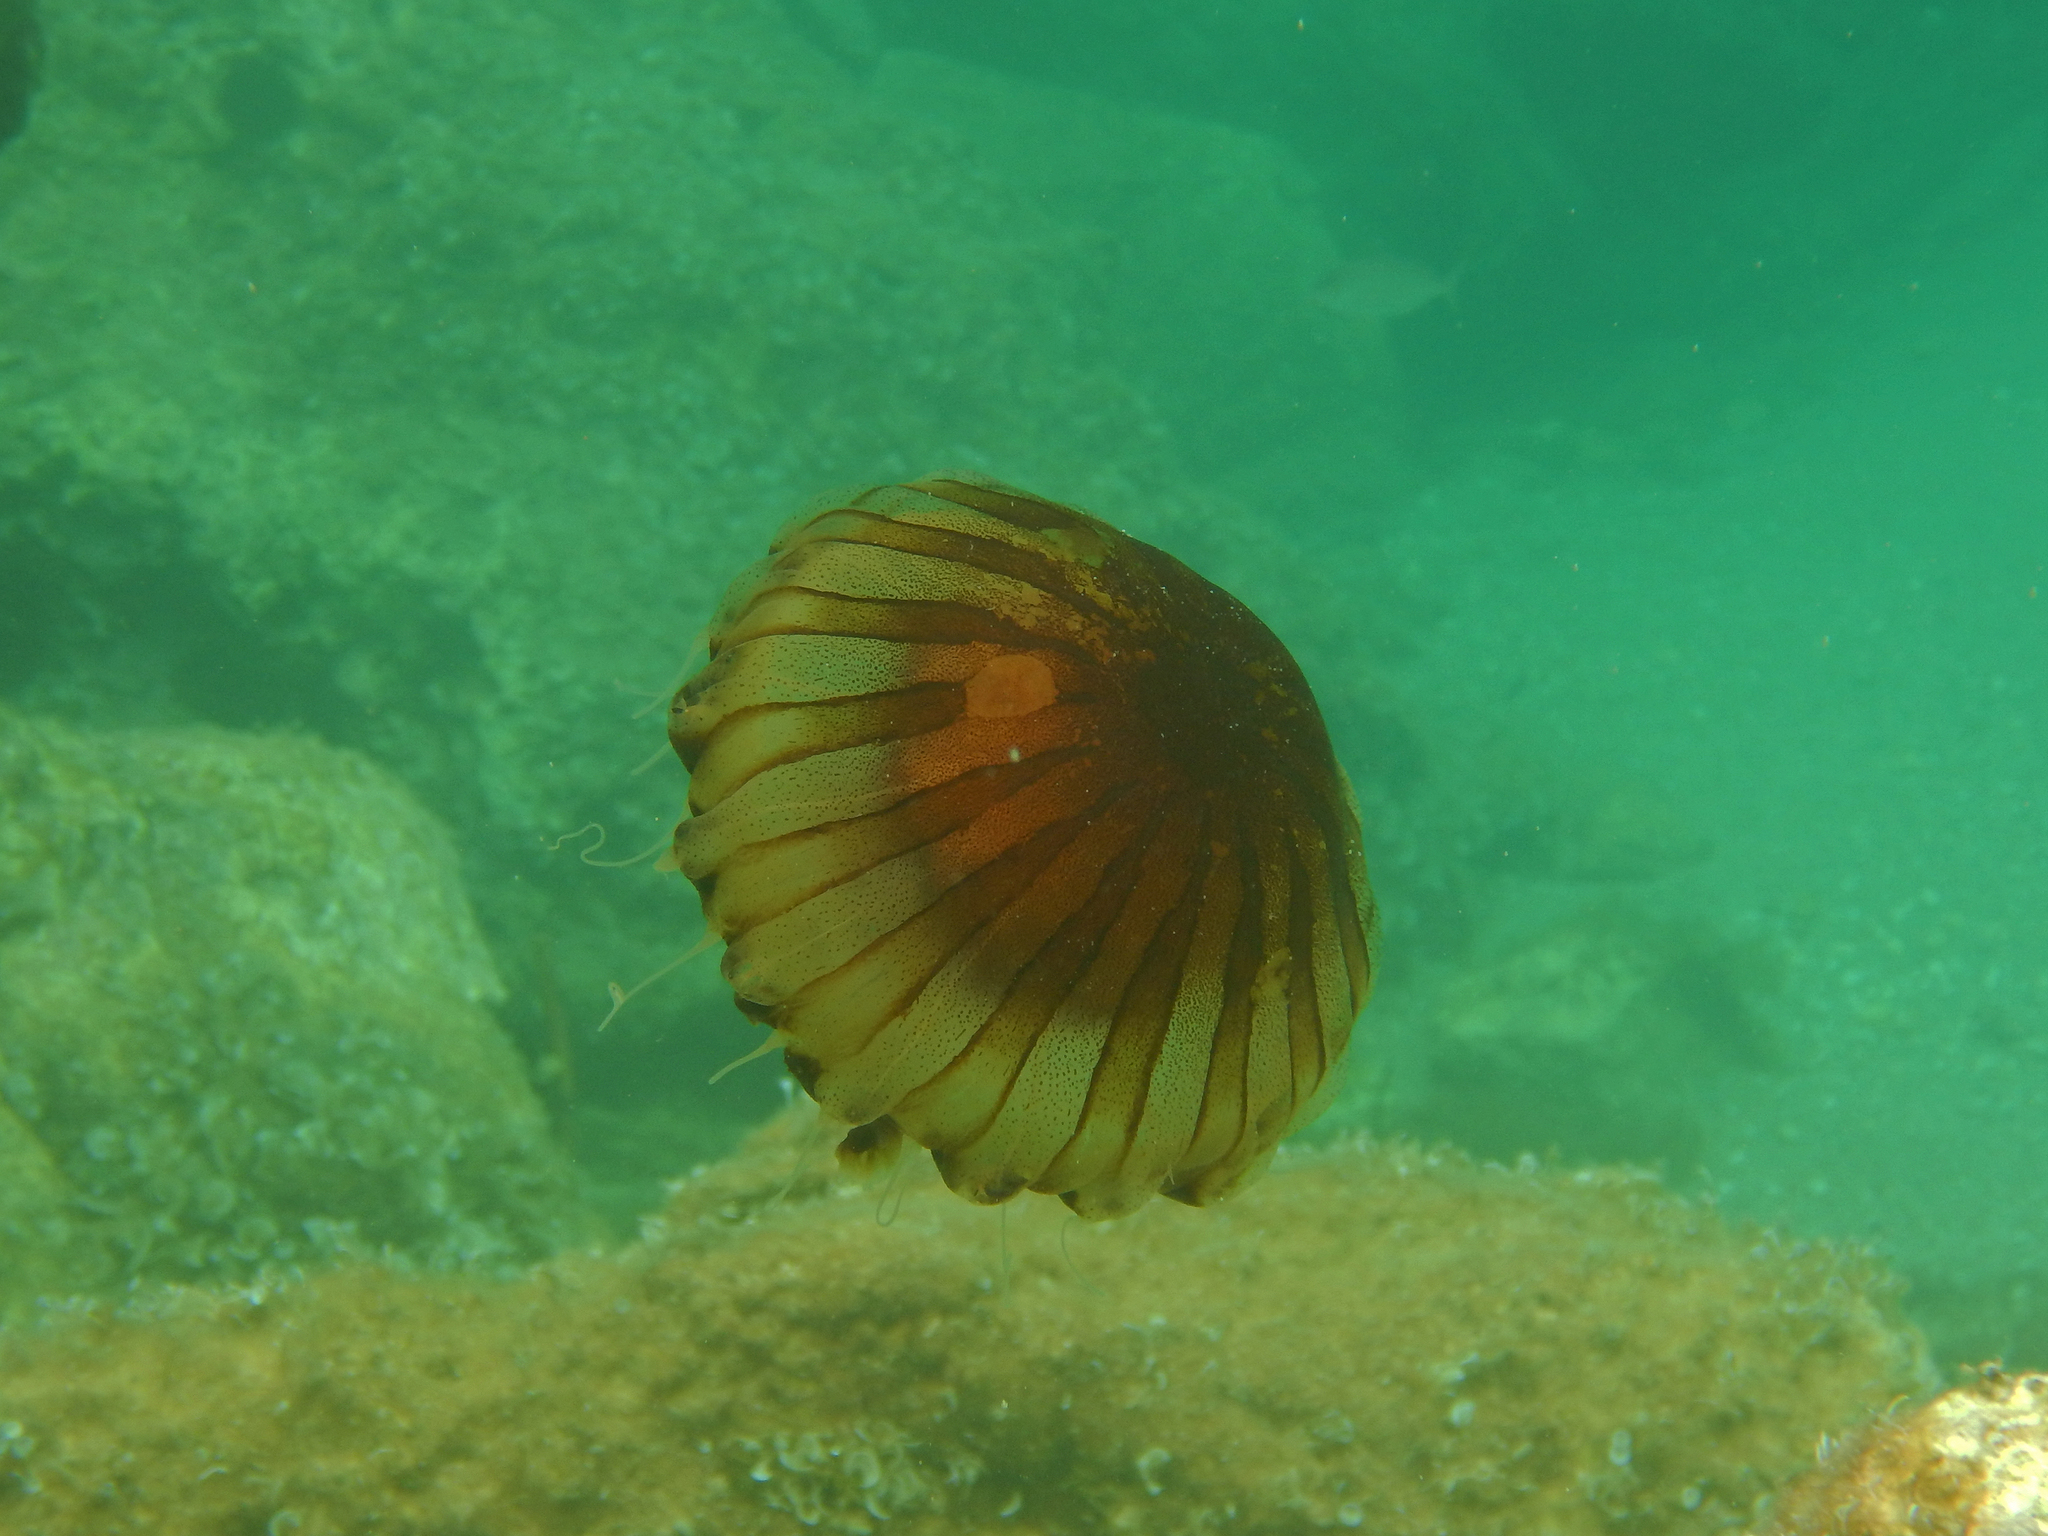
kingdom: Animalia
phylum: Cnidaria
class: Scyphozoa
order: Semaeostomeae
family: Pelagiidae
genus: Chrysaora
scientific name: Chrysaora hysoscella
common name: Compass jellyfish
